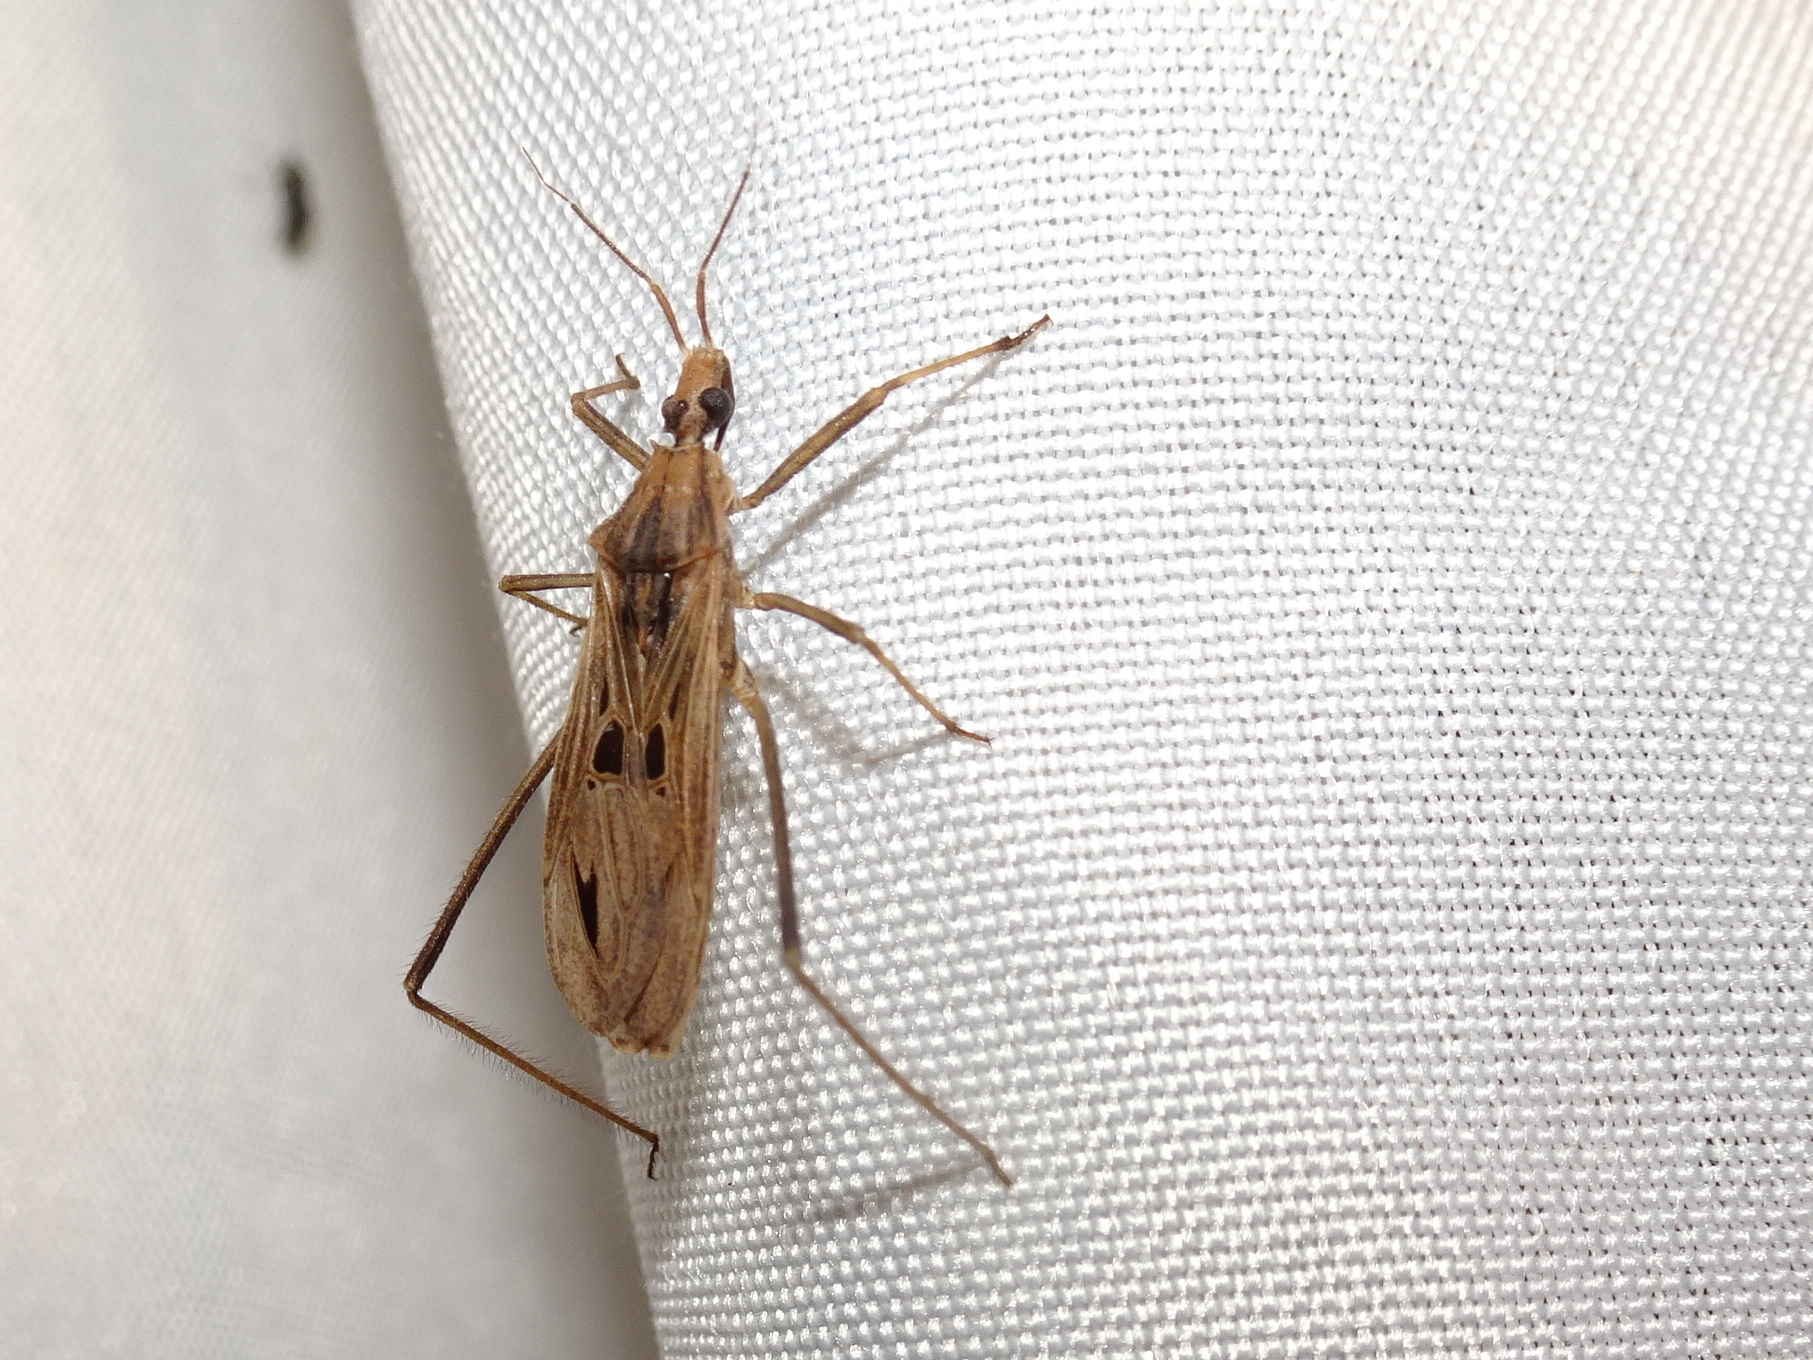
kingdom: Animalia
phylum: Arthropoda
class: Insecta
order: Hemiptera
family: Reduviidae
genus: Narvesus
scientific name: Narvesus carolinensis
